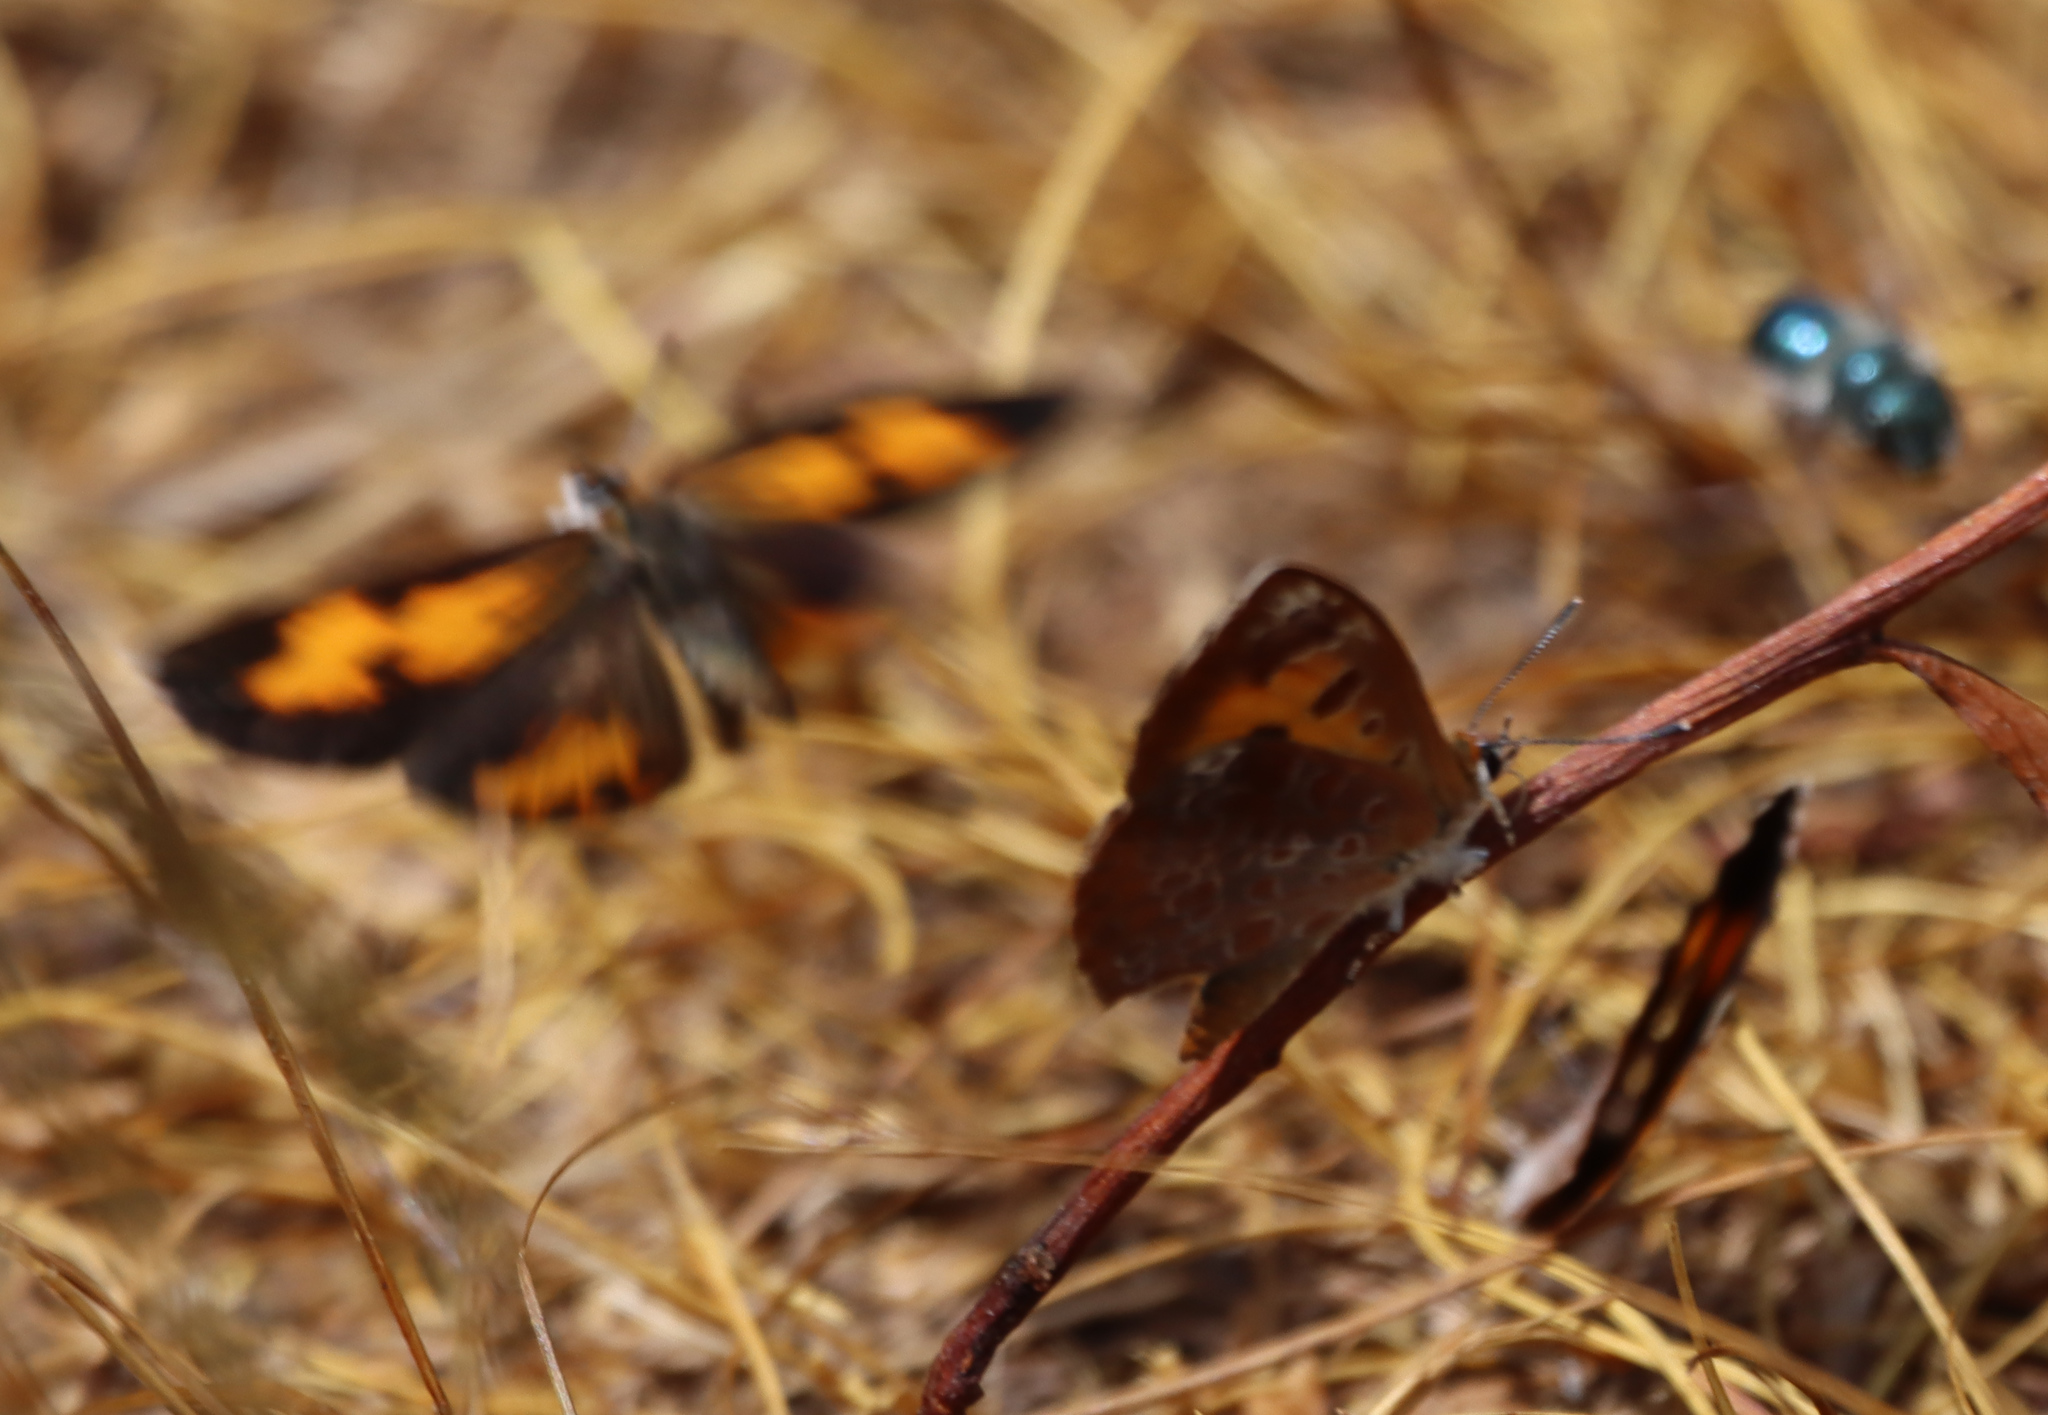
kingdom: Animalia
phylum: Arthropoda
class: Insecta
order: Lepidoptera
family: Lycaenidae
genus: Feniseca
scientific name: Feniseca tarquinius
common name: Harvester
